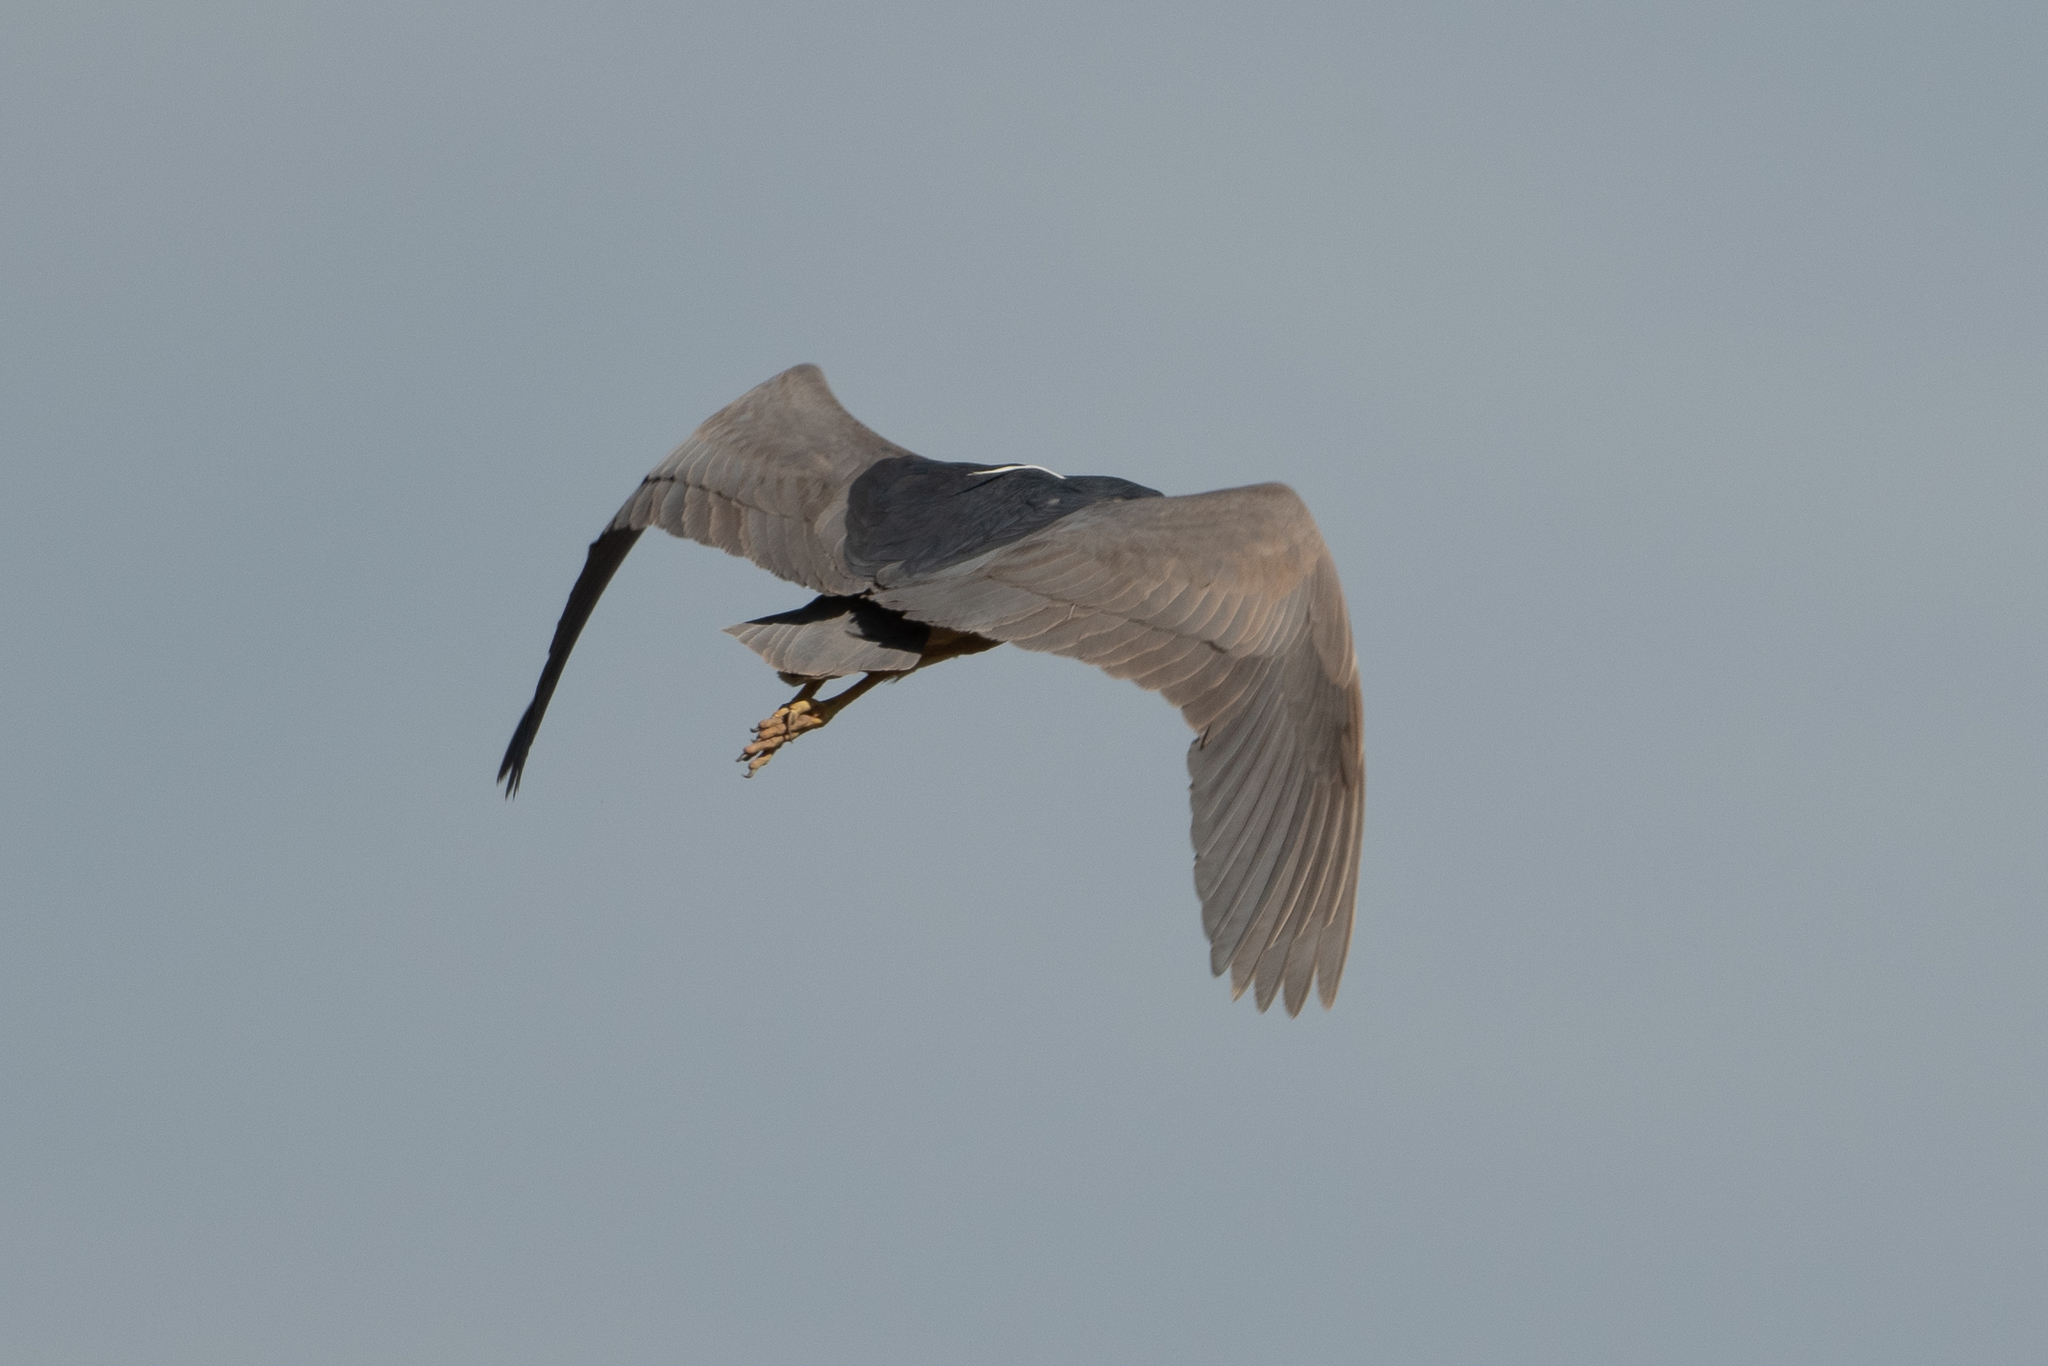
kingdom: Animalia
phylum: Chordata
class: Aves
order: Pelecaniformes
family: Ardeidae
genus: Nycticorax
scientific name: Nycticorax nycticorax
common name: Black-crowned night heron
